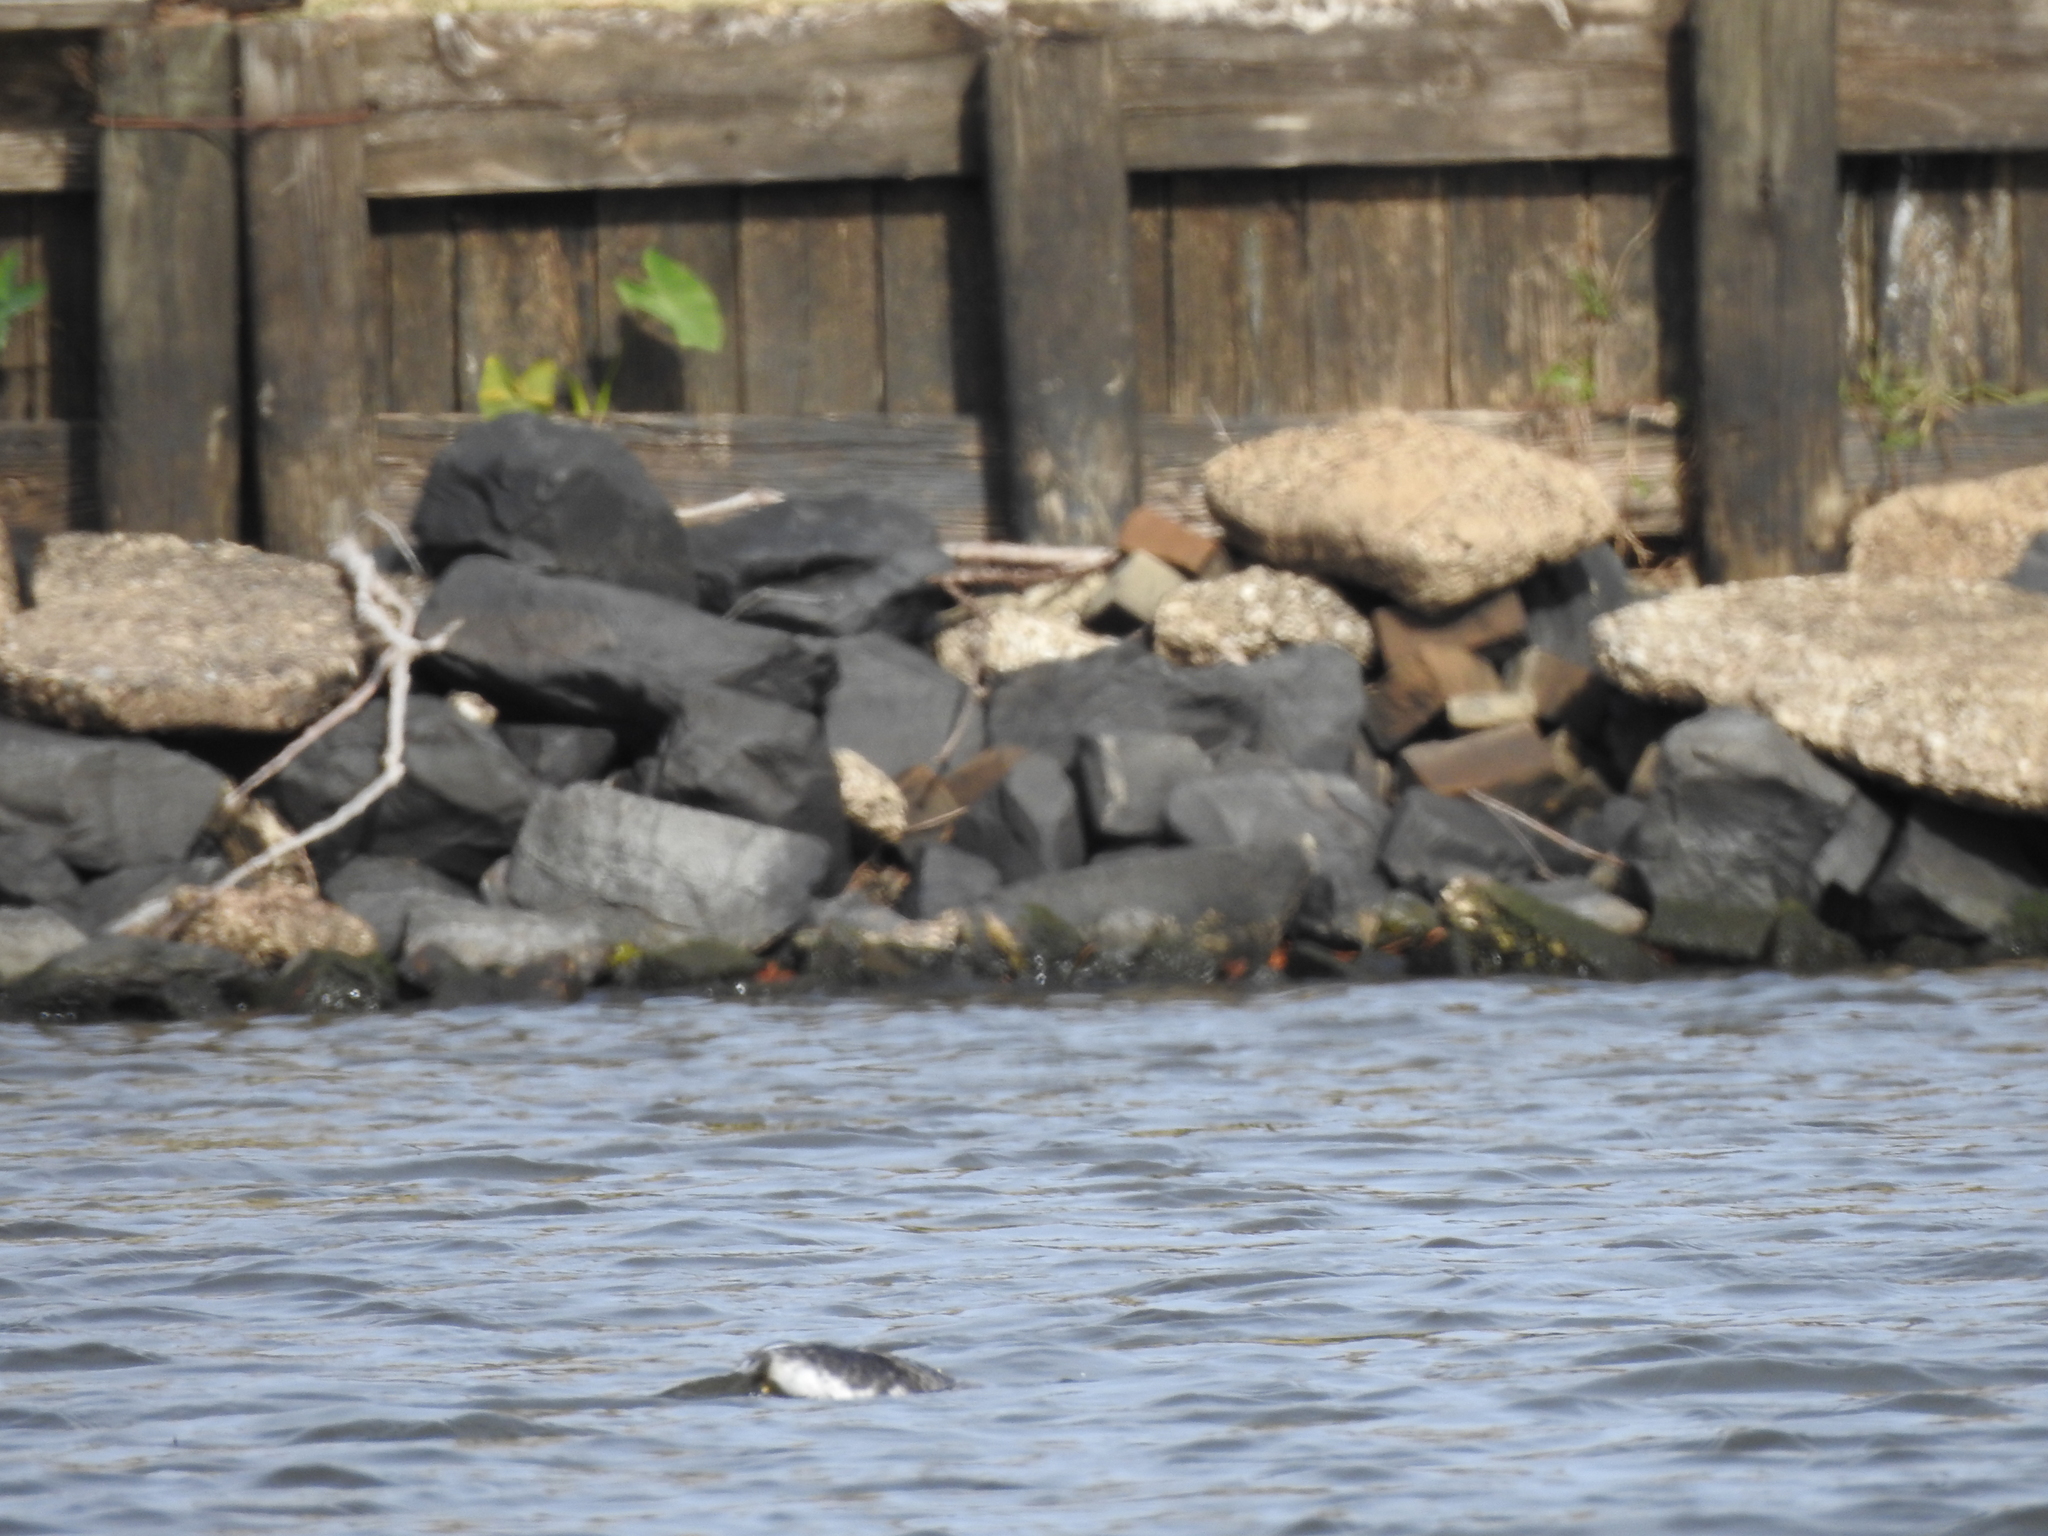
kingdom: Animalia
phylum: Chordata
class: Aves
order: Podicipediformes
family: Podicipedidae
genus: Aechmophorus
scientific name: Aechmophorus occidentalis
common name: Western grebe
